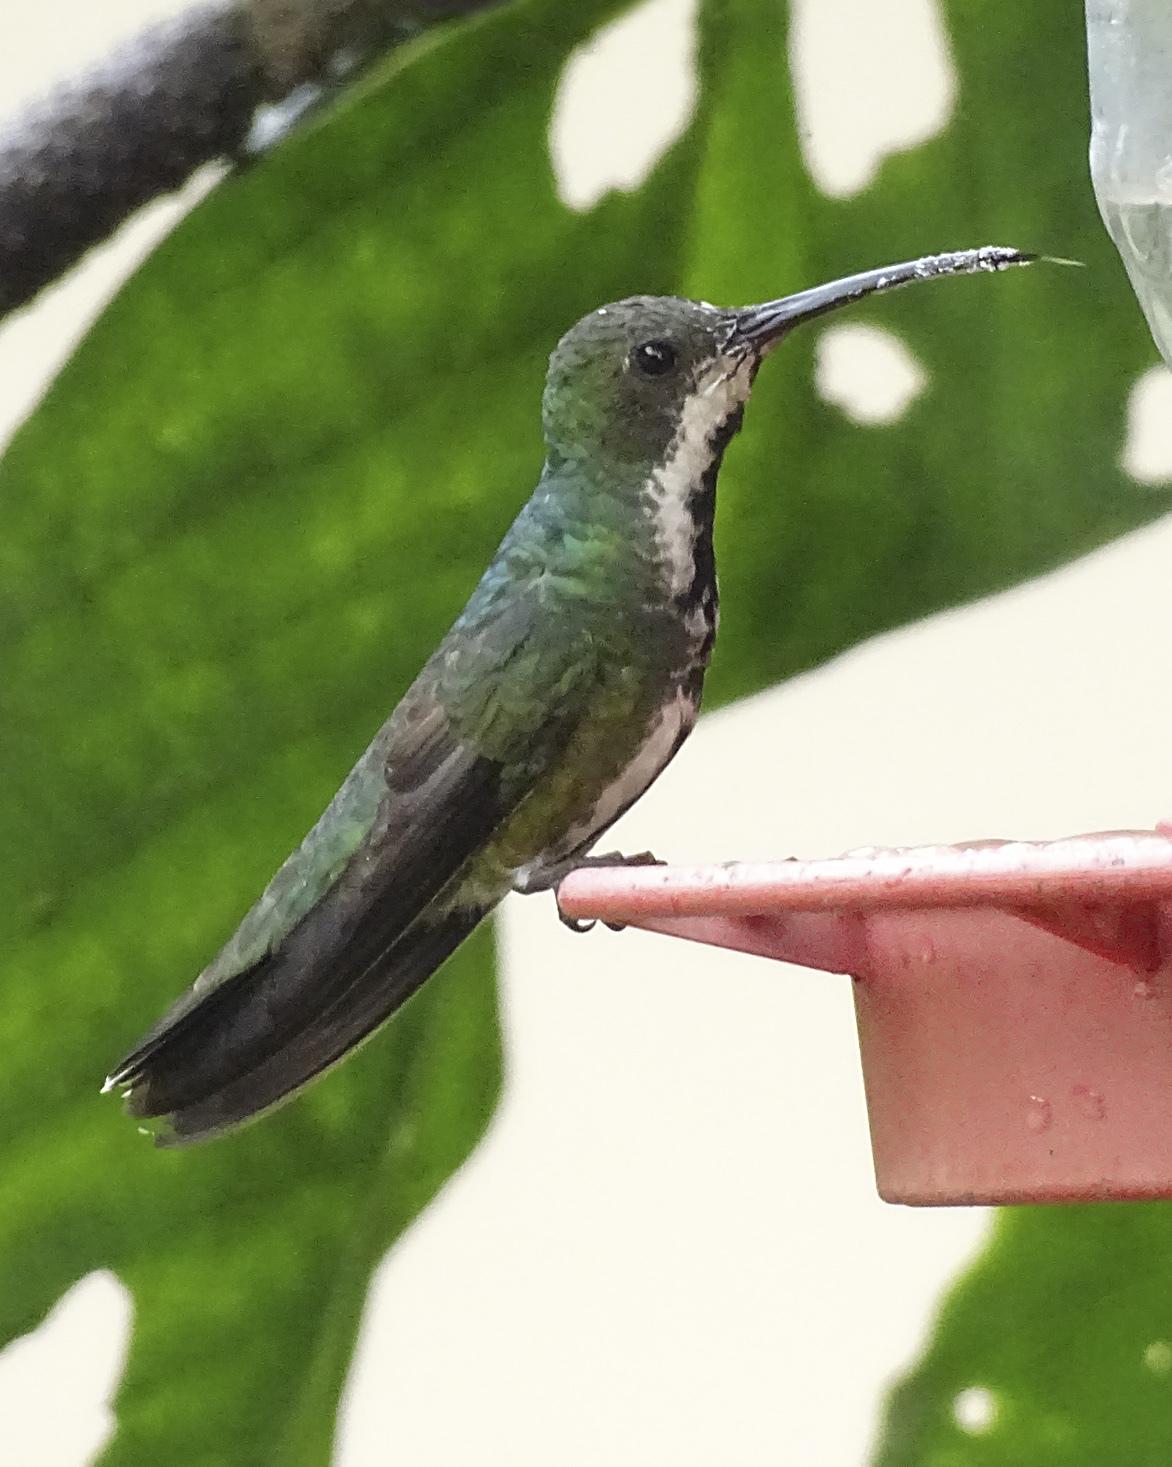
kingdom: Animalia
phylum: Chordata
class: Aves
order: Apodiformes
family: Trochilidae
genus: Anthracothorax
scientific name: Anthracothorax nigricollis
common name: Black-throated mango
